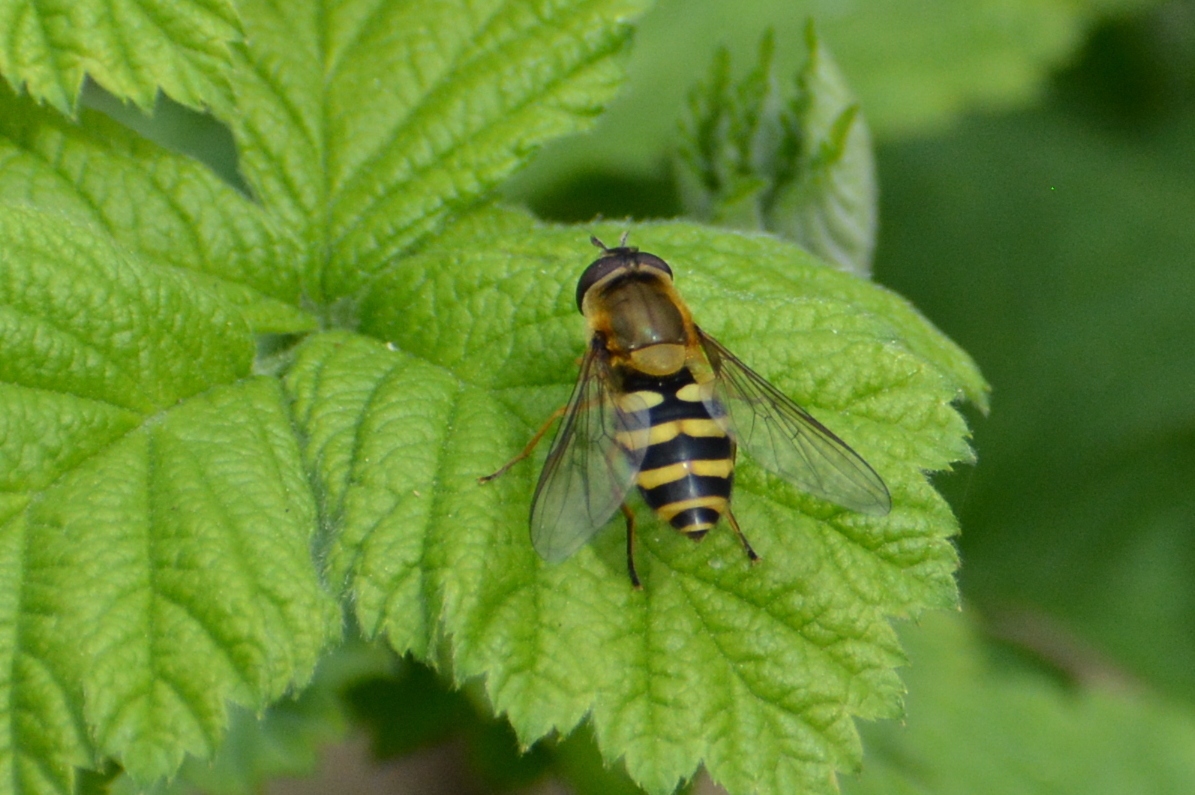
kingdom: Animalia
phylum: Arthropoda
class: Insecta
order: Diptera
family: Syrphidae
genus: Syrphus
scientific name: Syrphus
